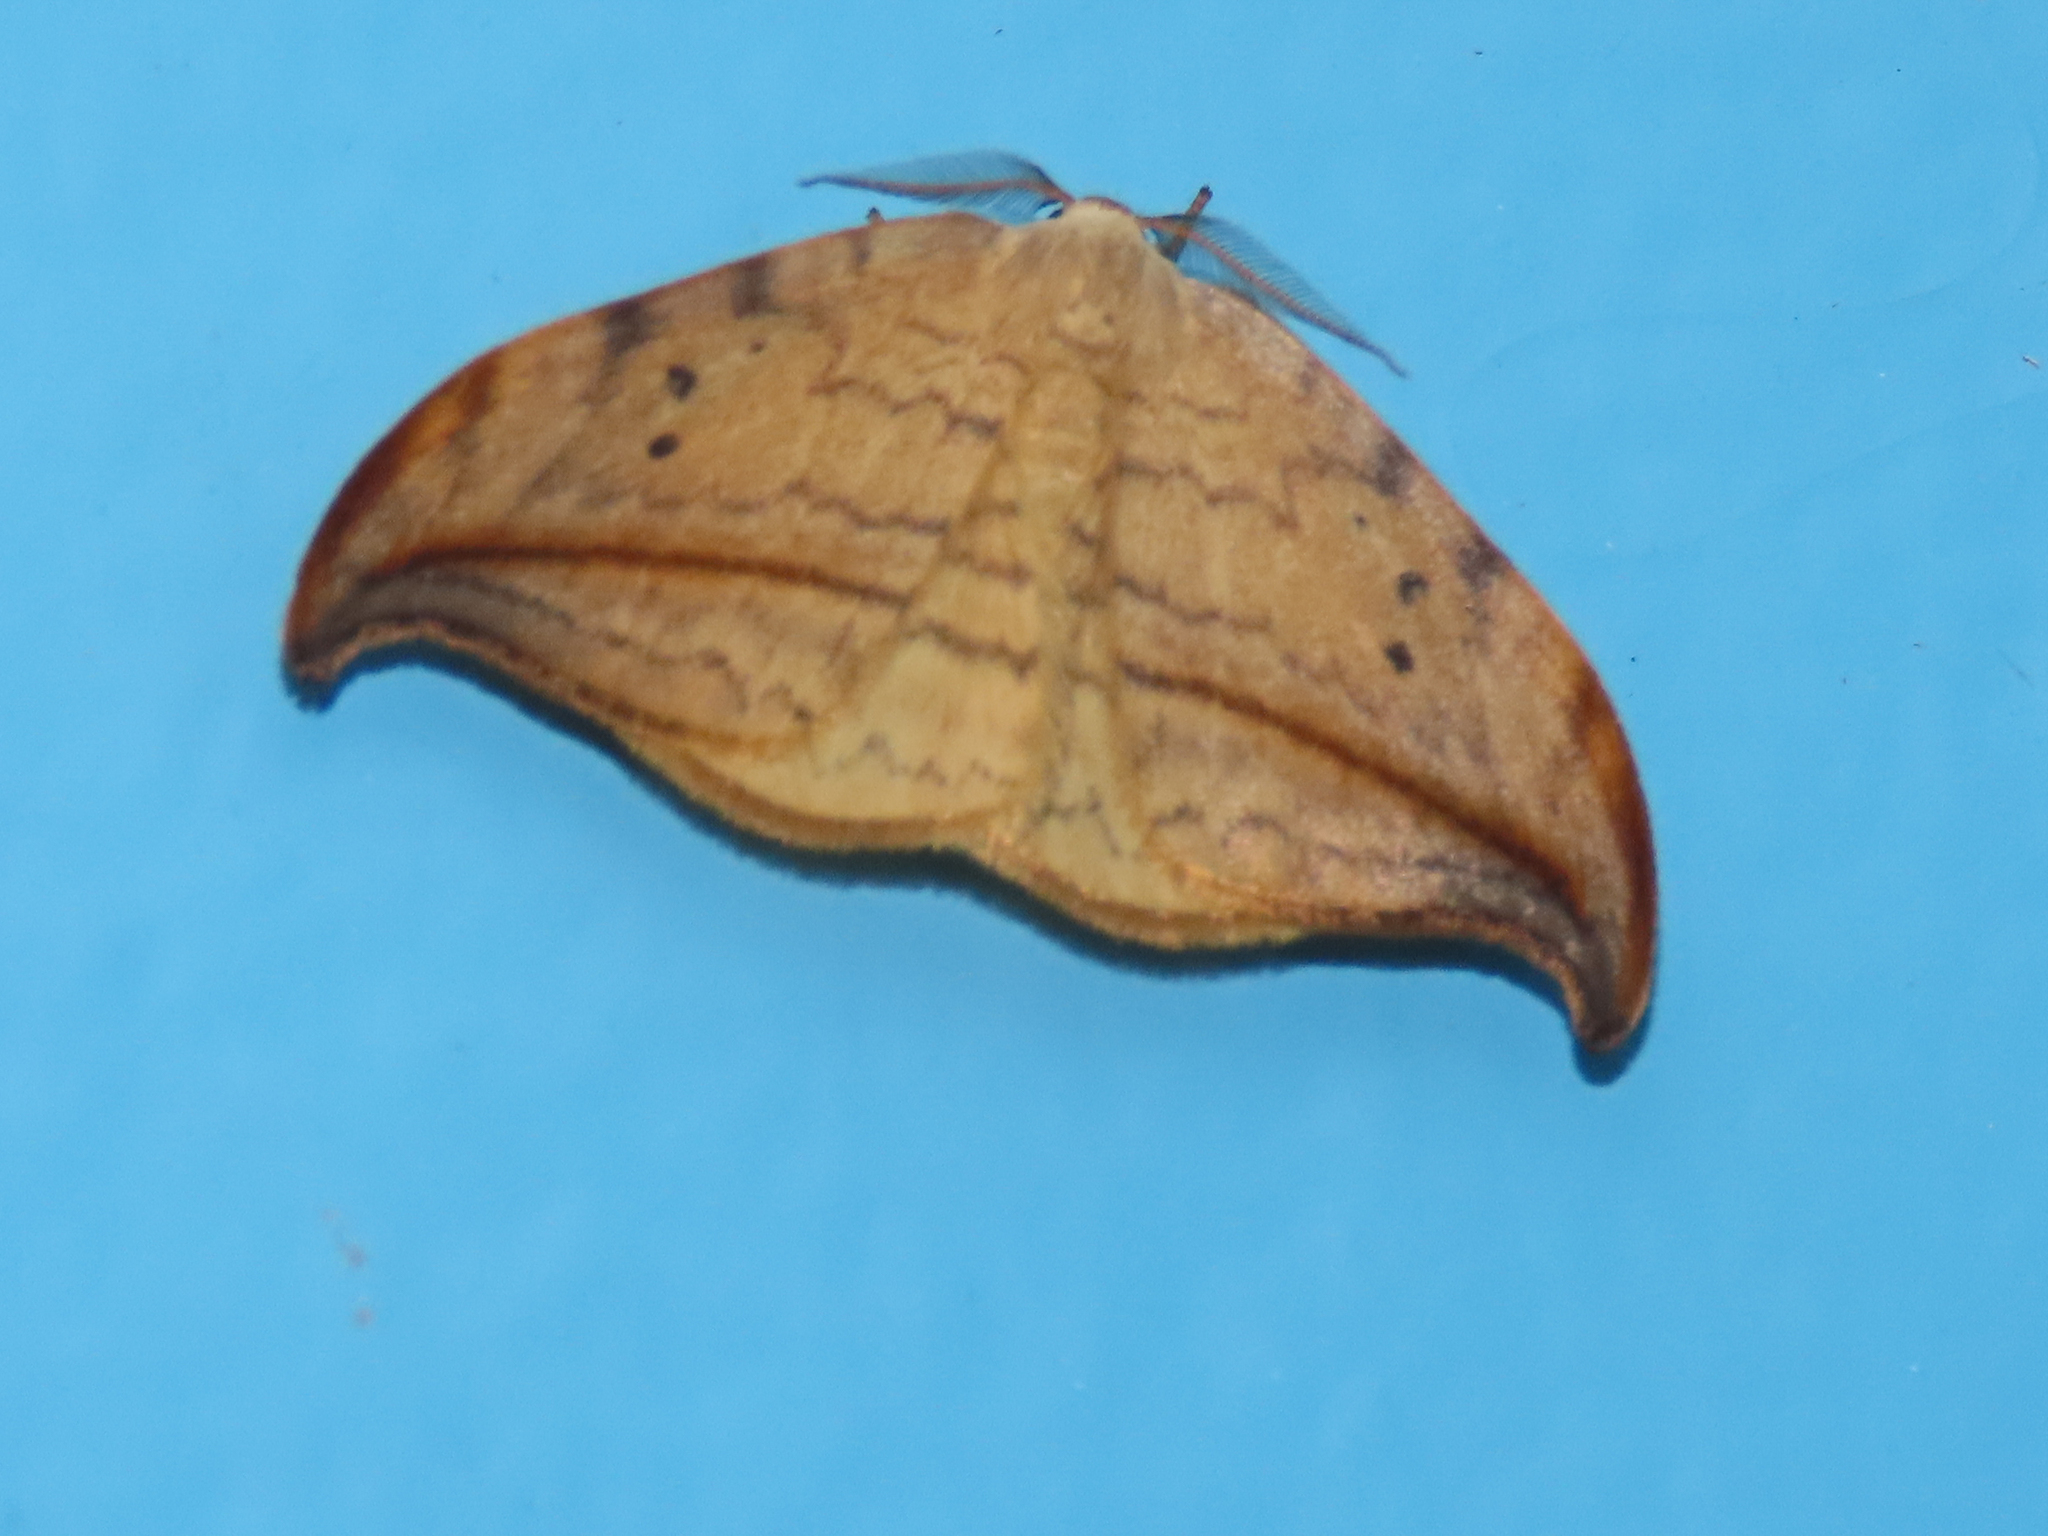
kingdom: Animalia
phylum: Arthropoda
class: Insecta
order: Lepidoptera
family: Drepanidae
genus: Drepana
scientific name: Drepana arcuata
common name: Arched hooktip moth
